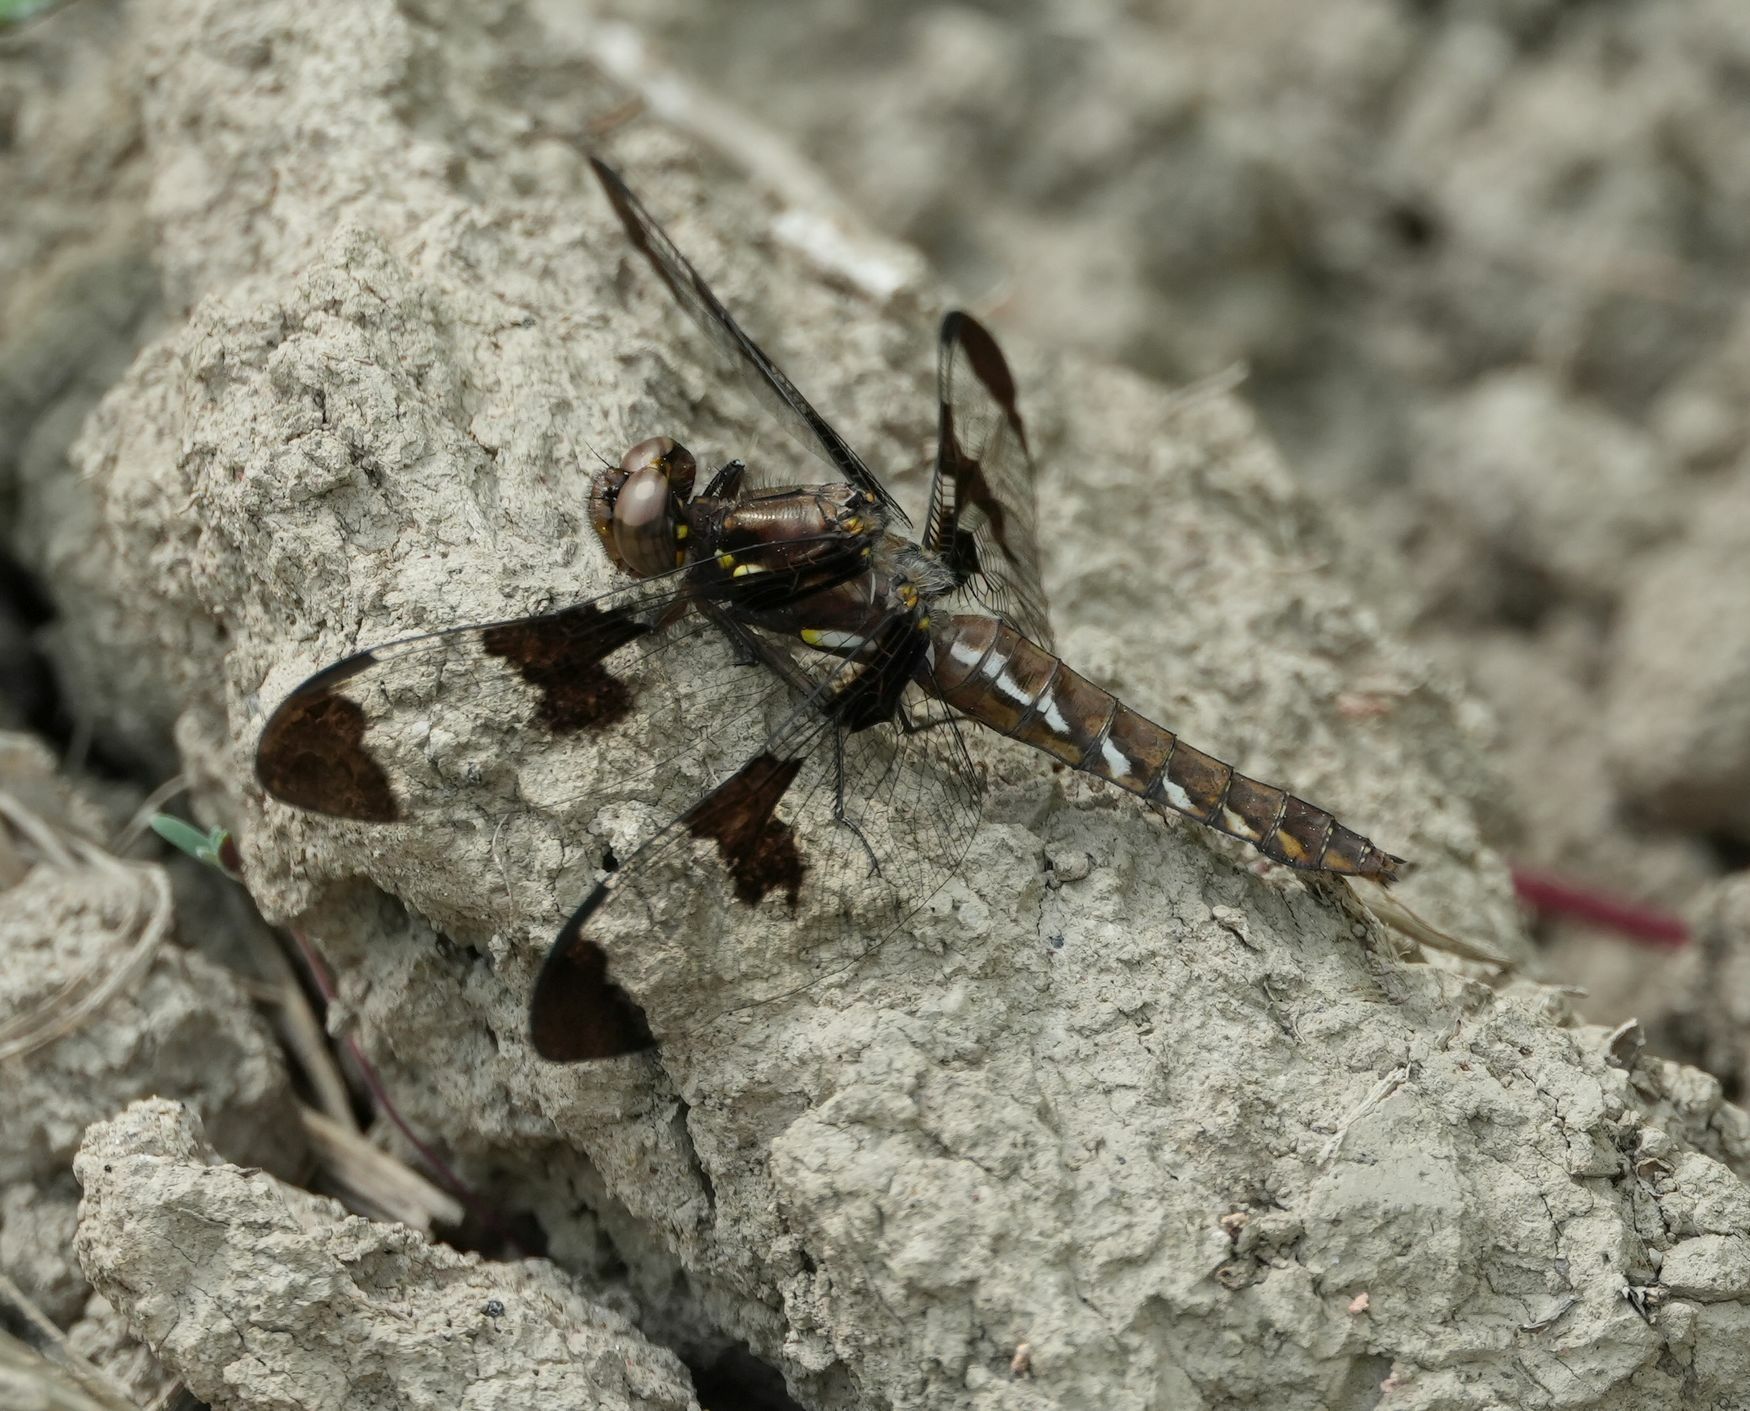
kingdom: Animalia
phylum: Arthropoda
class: Insecta
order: Odonata
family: Libellulidae
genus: Plathemis
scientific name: Plathemis lydia
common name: Common whitetail
